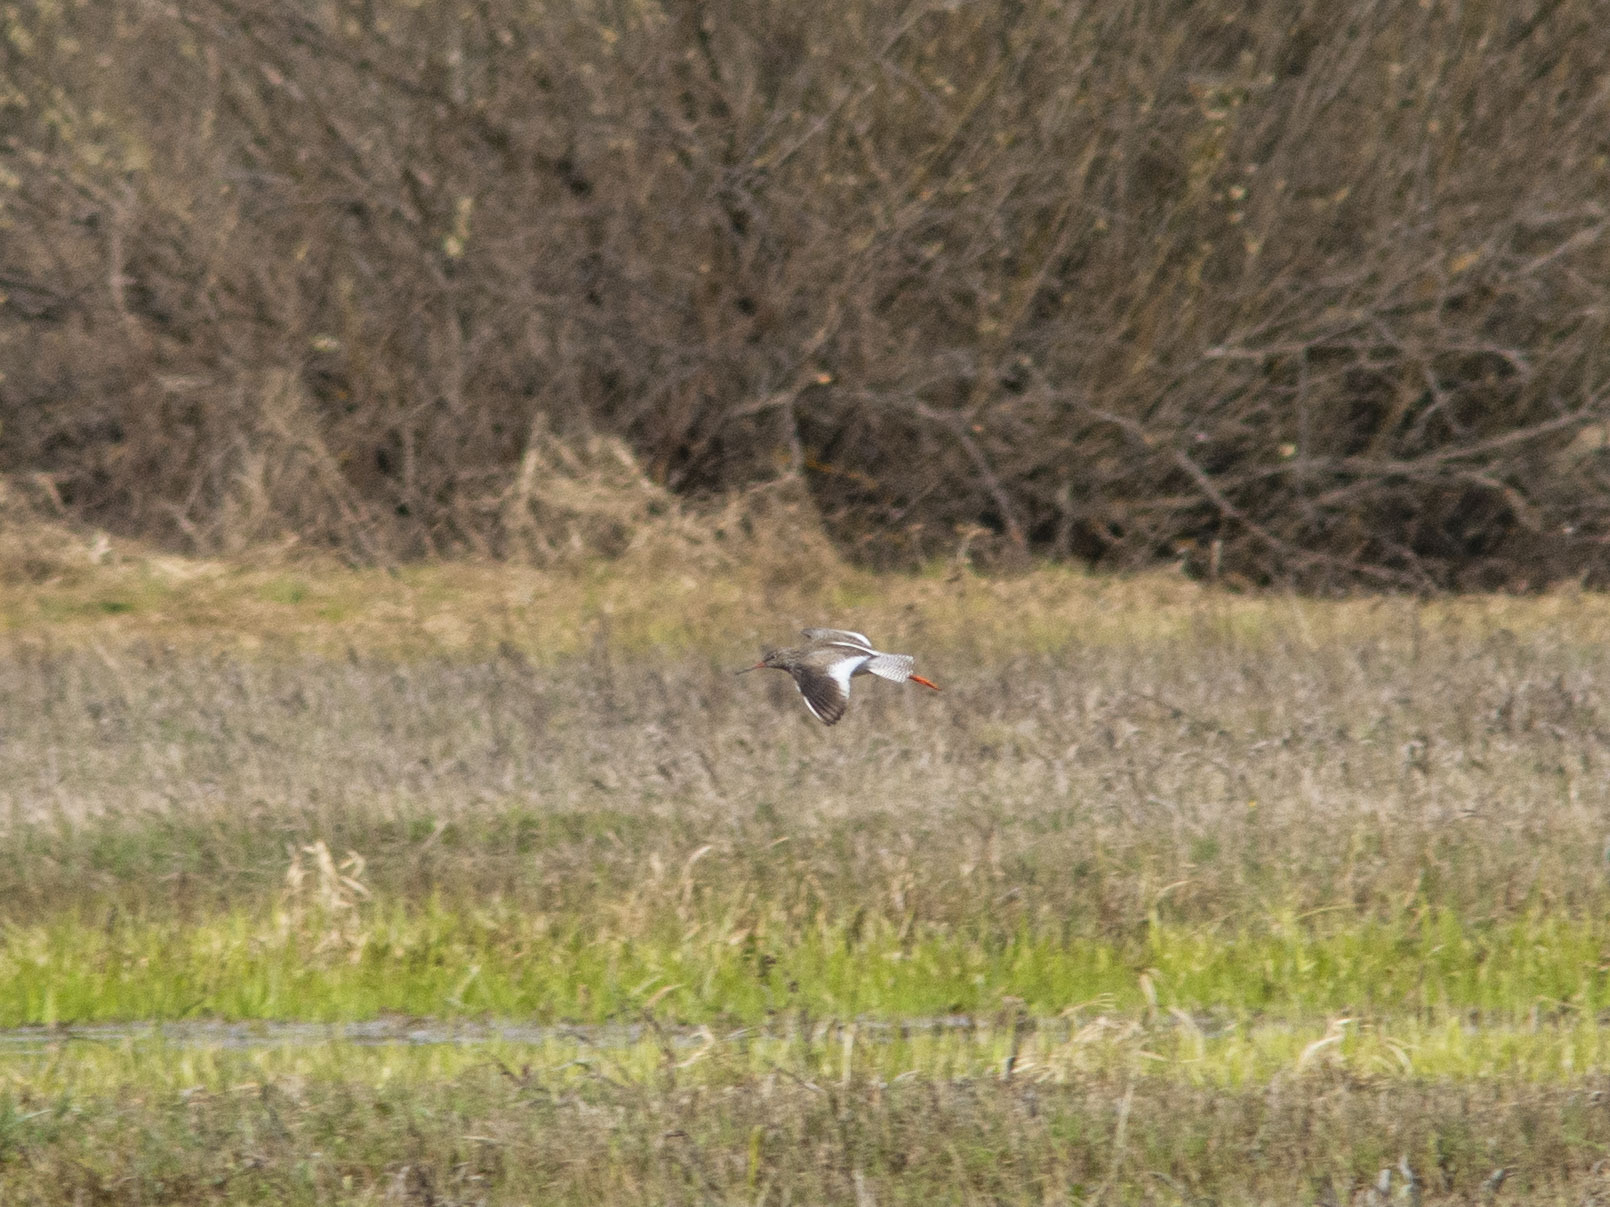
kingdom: Animalia
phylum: Chordata
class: Aves
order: Charadriiformes
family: Scolopacidae
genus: Tringa
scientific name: Tringa totanus
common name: Common redshank
